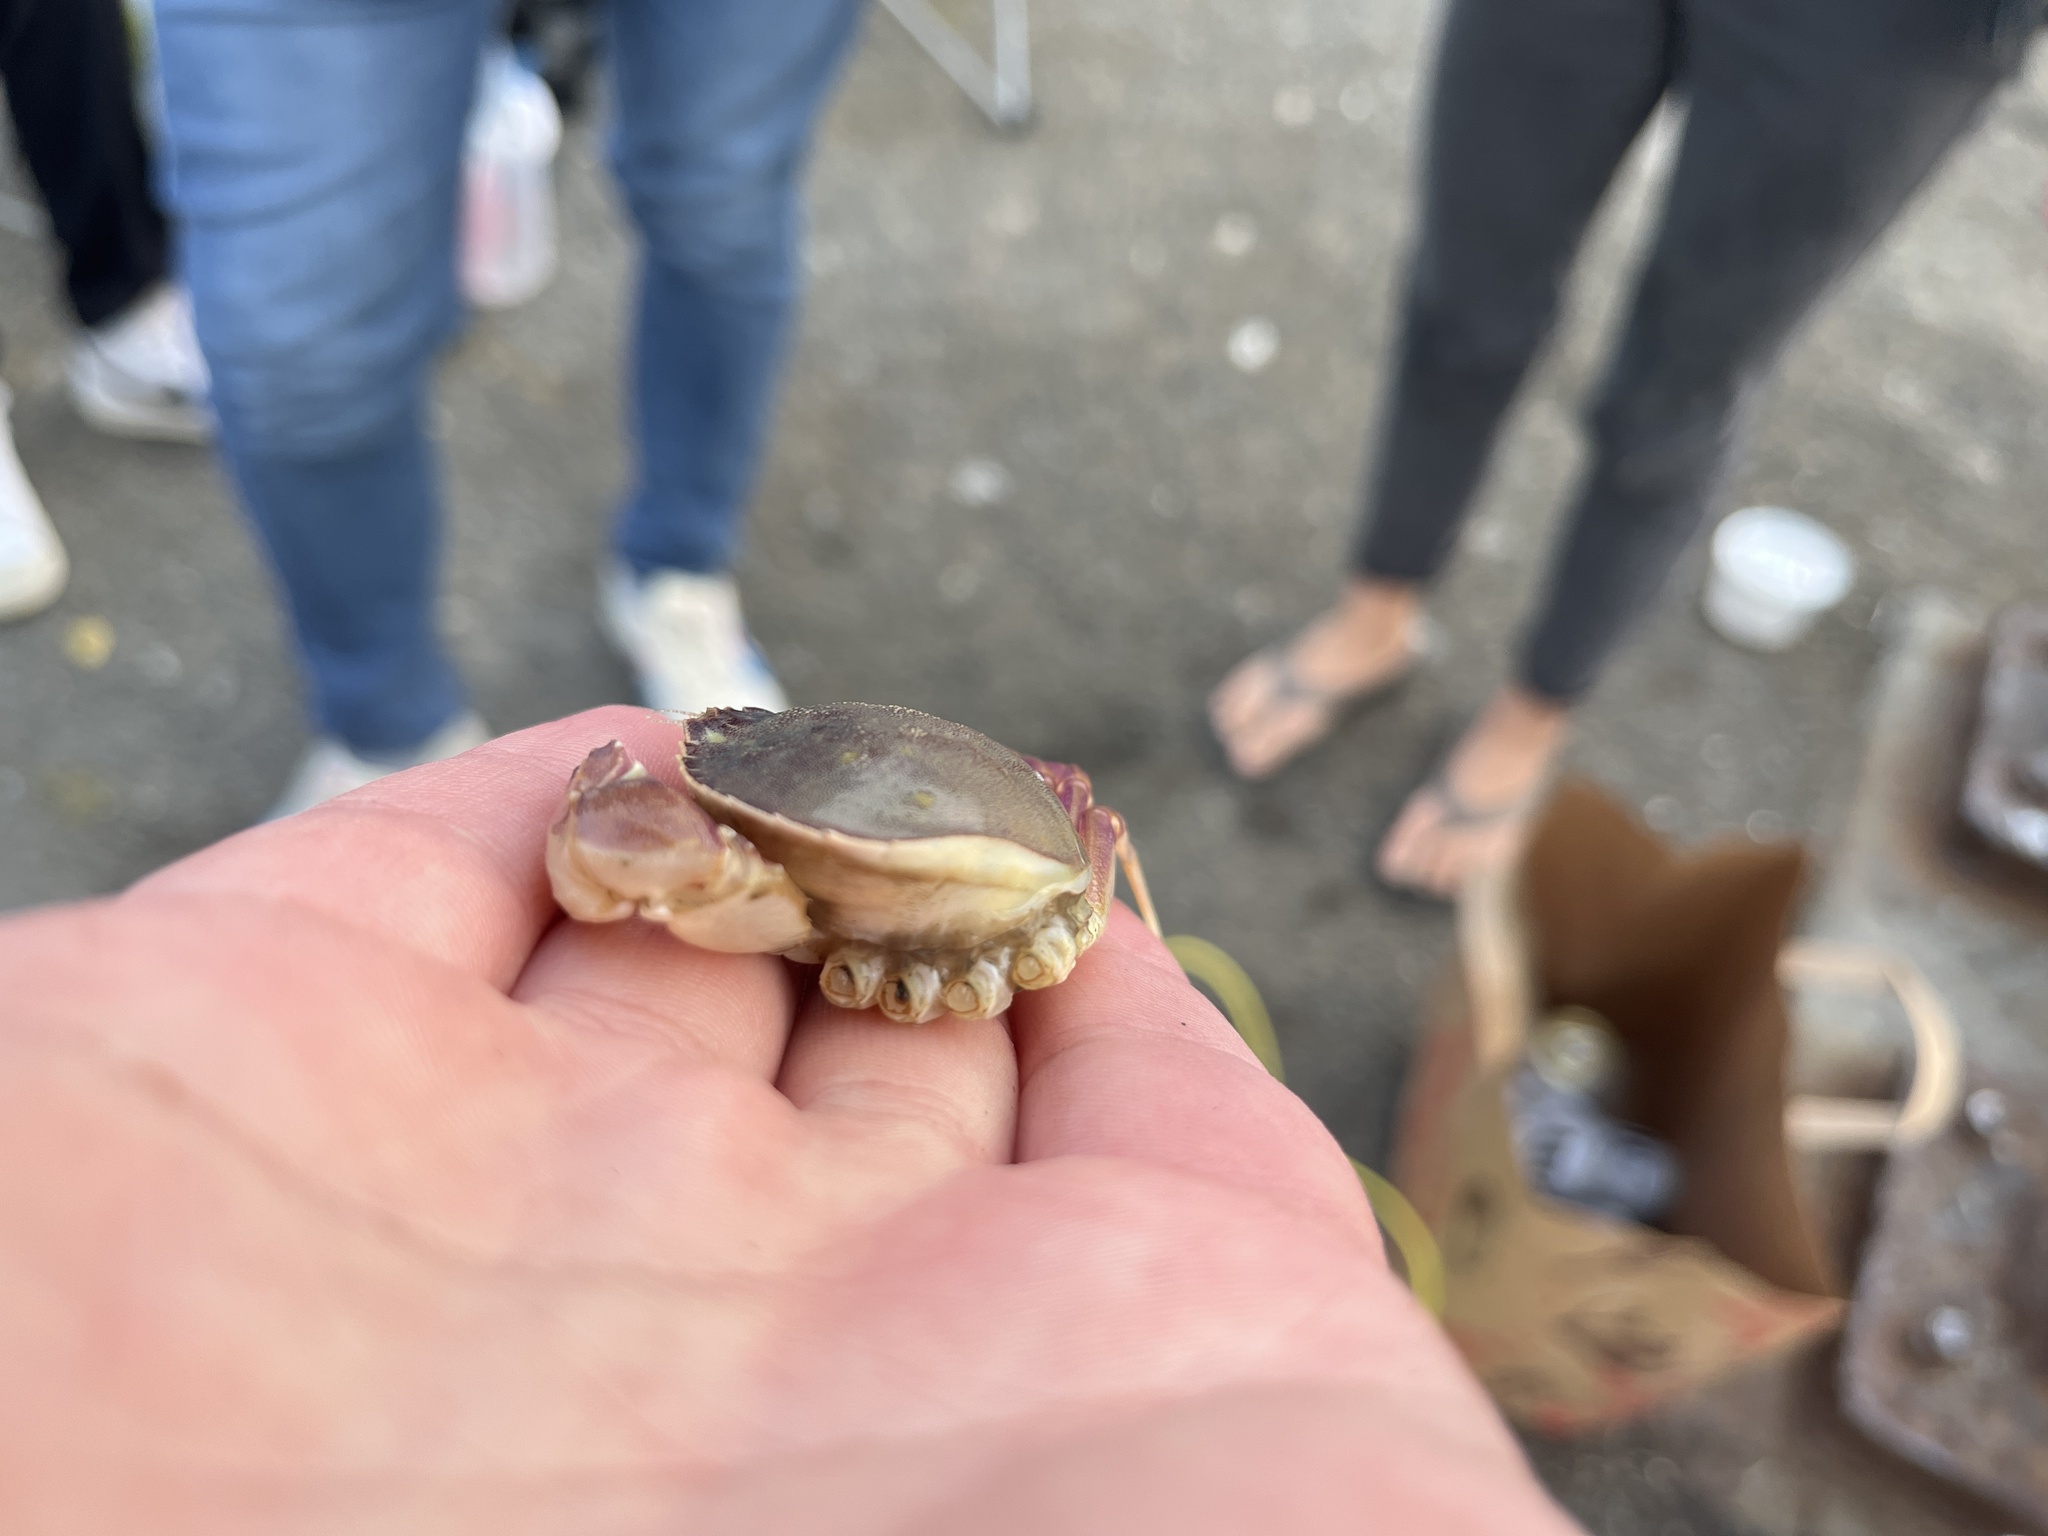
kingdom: Animalia
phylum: Arthropoda
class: Malacostraca
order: Decapoda
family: Cancridae
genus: Metacarcinus
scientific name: Metacarcinus gracilis
